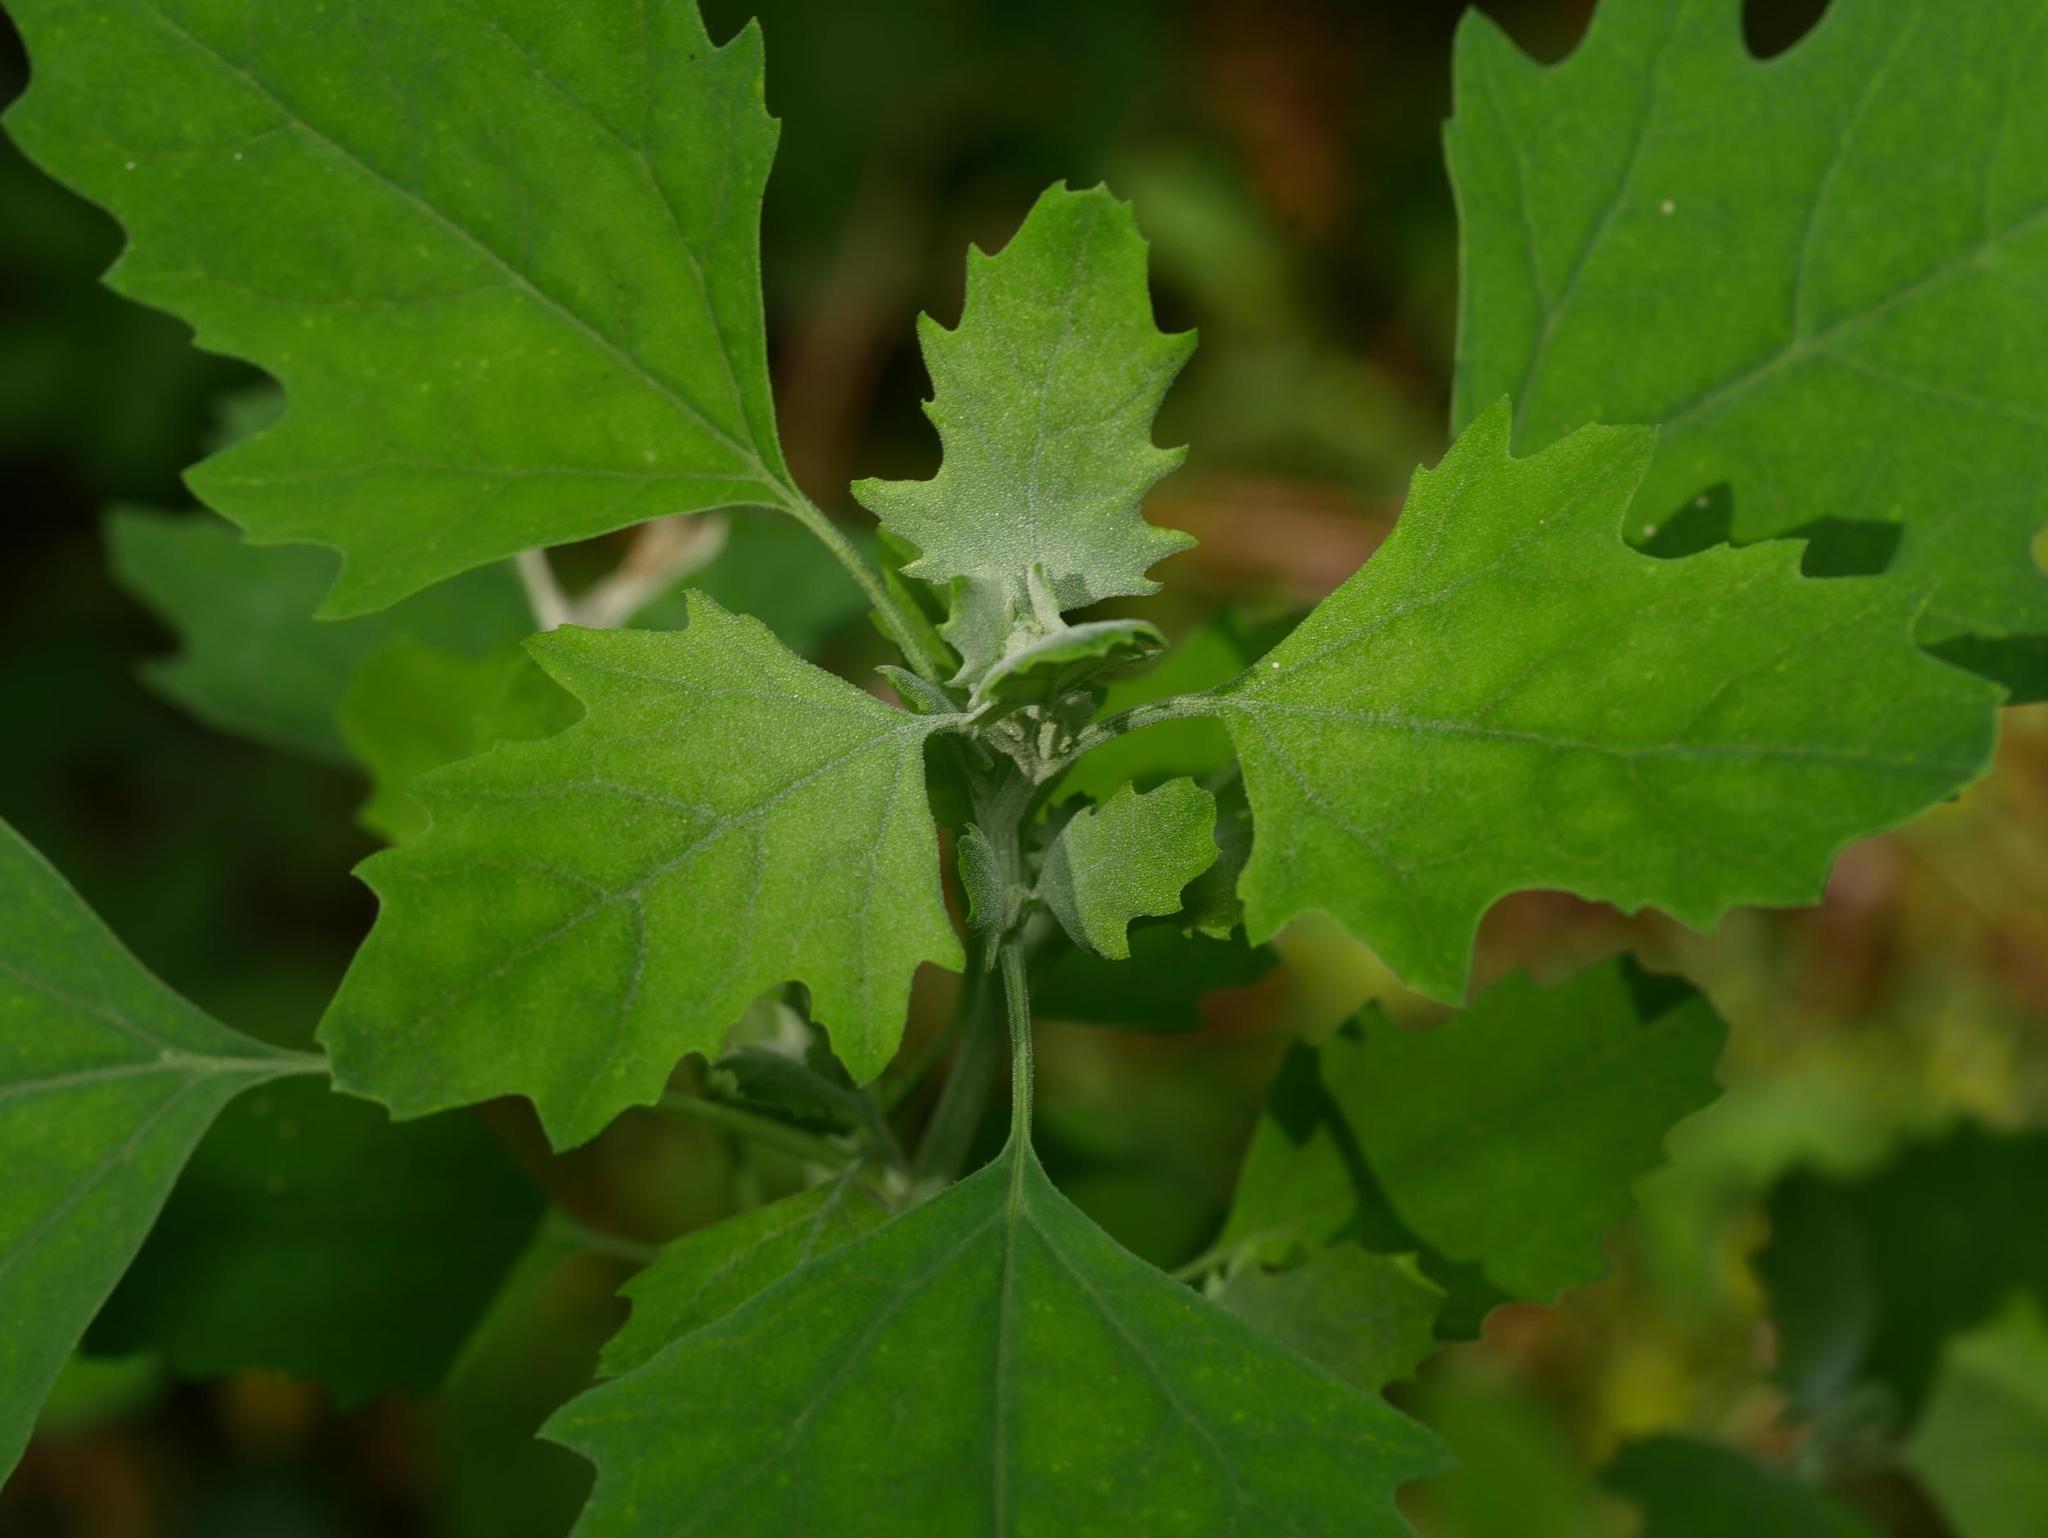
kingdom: Plantae
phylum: Tracheophyta
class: Magnoliopsida
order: Caryophyllales
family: Amaranthaceae
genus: Chenopodium
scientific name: Chenopodium album
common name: Fat-hen
